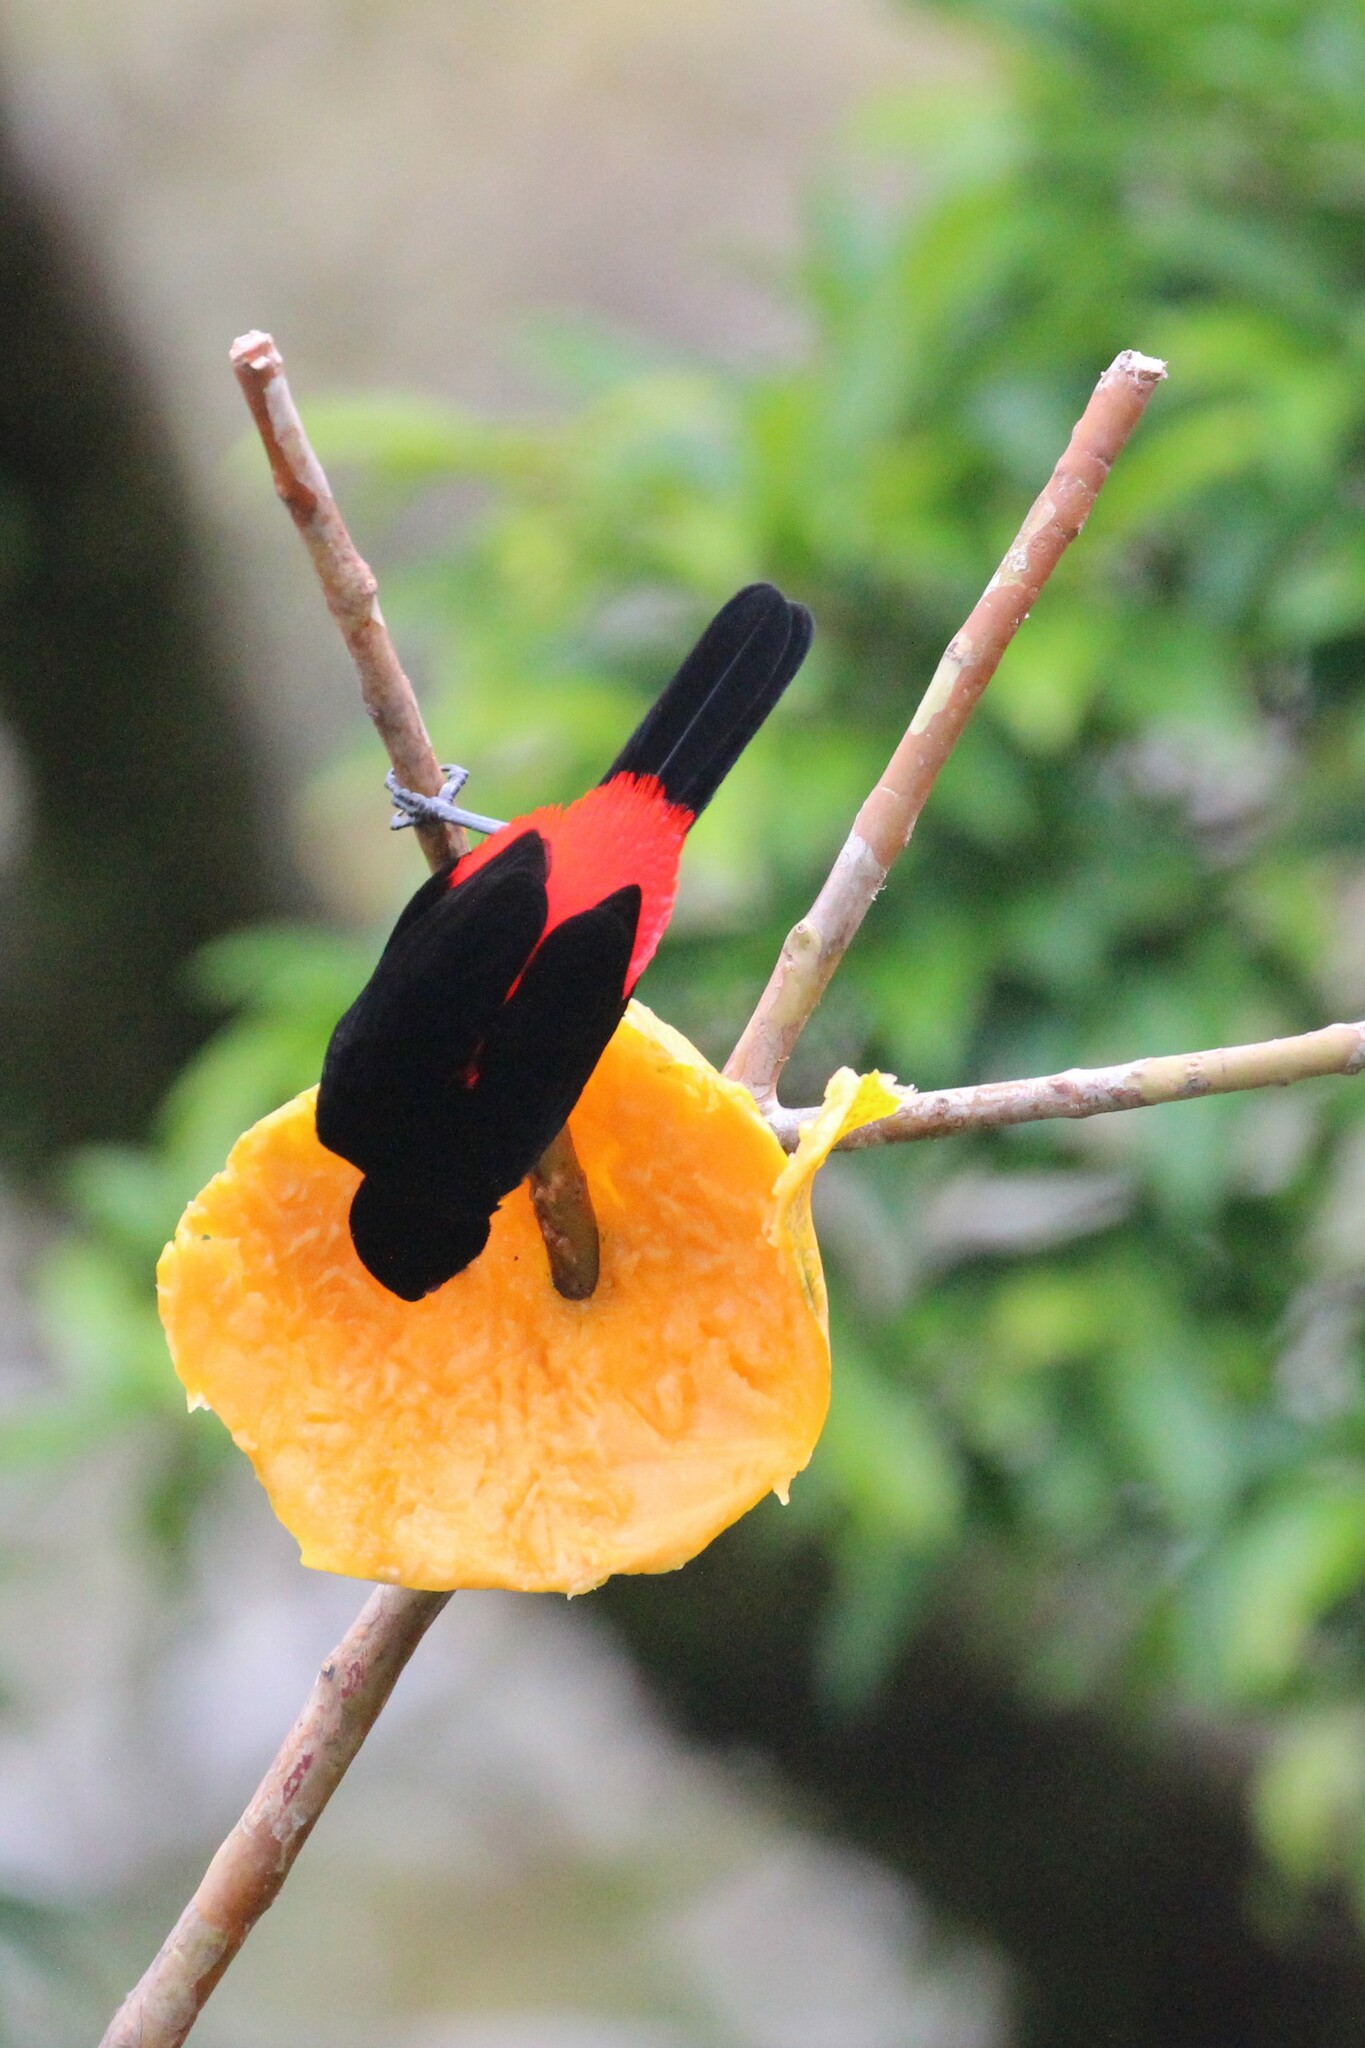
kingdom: Animalia
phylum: Chordata
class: Aves
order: Passeriformes
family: Thraupidae
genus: Ramphocelus
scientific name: Ramphocelus passerinii
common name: Passerini's tanager
